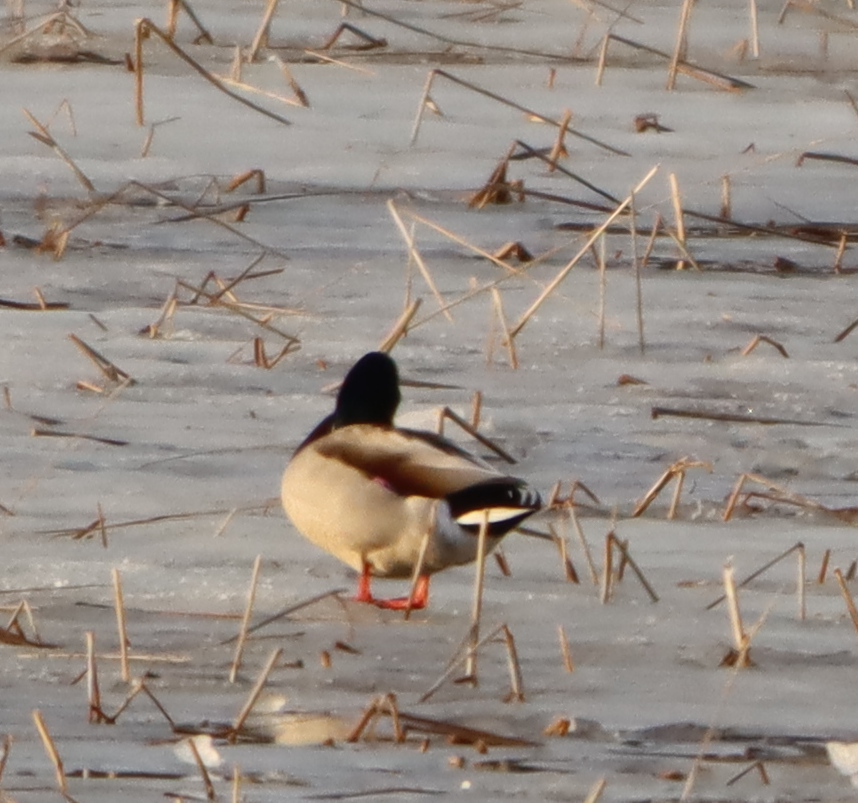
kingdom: Animalia
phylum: Chordata
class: Aves
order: Anseriformes
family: Anatidae
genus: Anas
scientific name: Anas platyrhynchos
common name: Mallard
